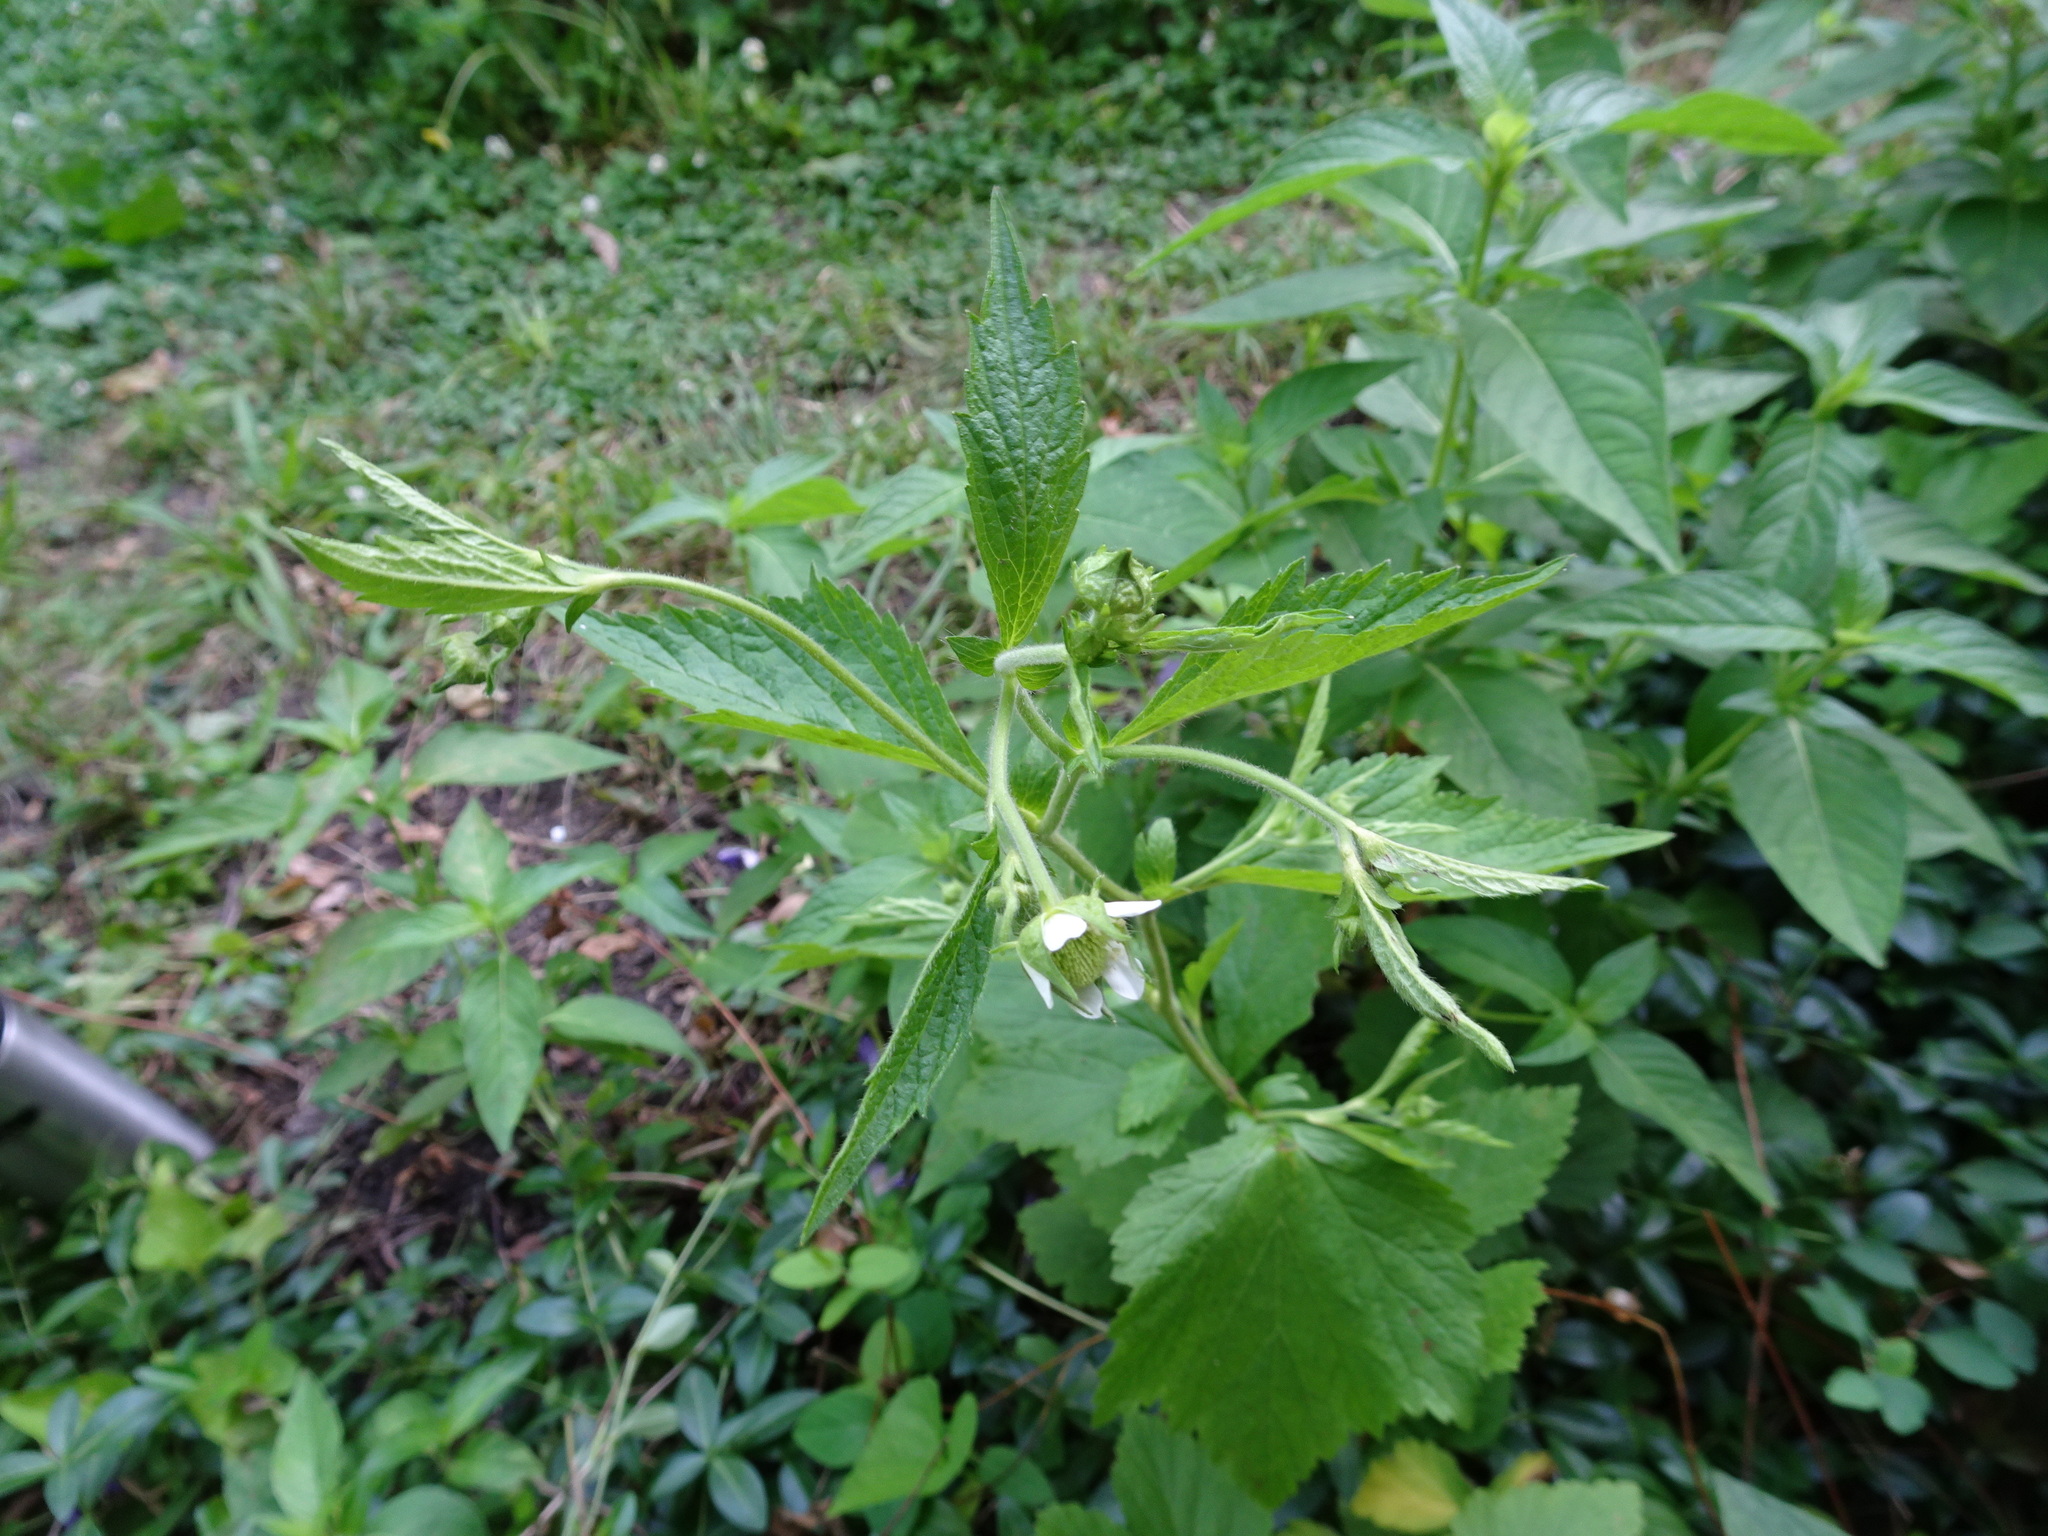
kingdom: Plantae
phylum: Tracheophyta
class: Magnoliopsida
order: Rosales
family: Rosaceae
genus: Geum
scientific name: Geum canadense
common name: White avens
